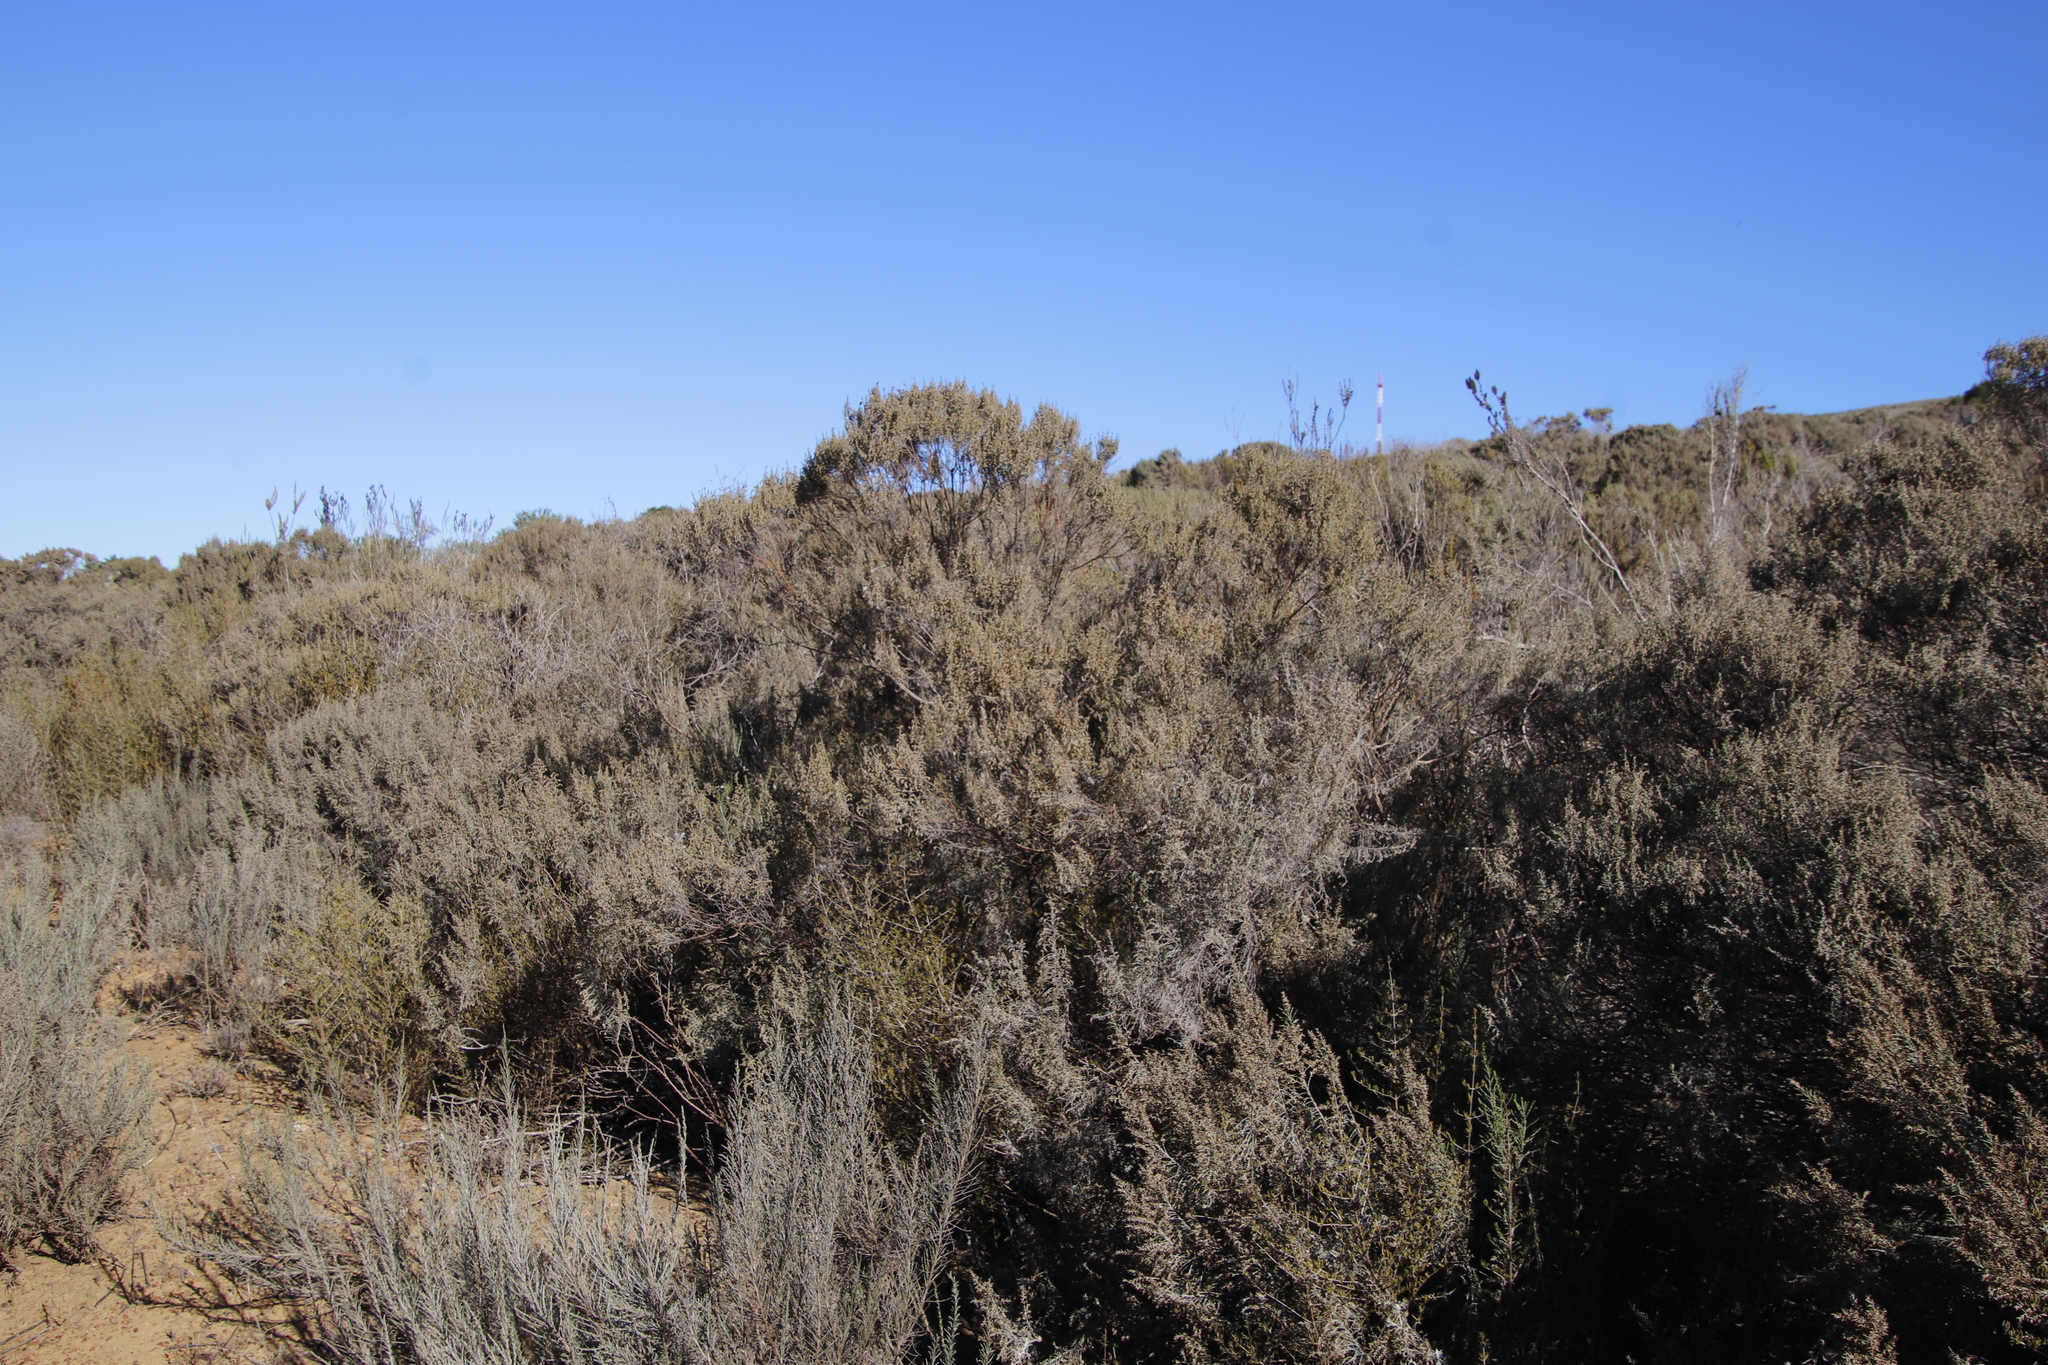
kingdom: Plantae
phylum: Tracheophyta
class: Magnoliopsida
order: Asterales
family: Asteraceae
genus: Dicerothamnus
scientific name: Dicerothamnus rhinocerotis
